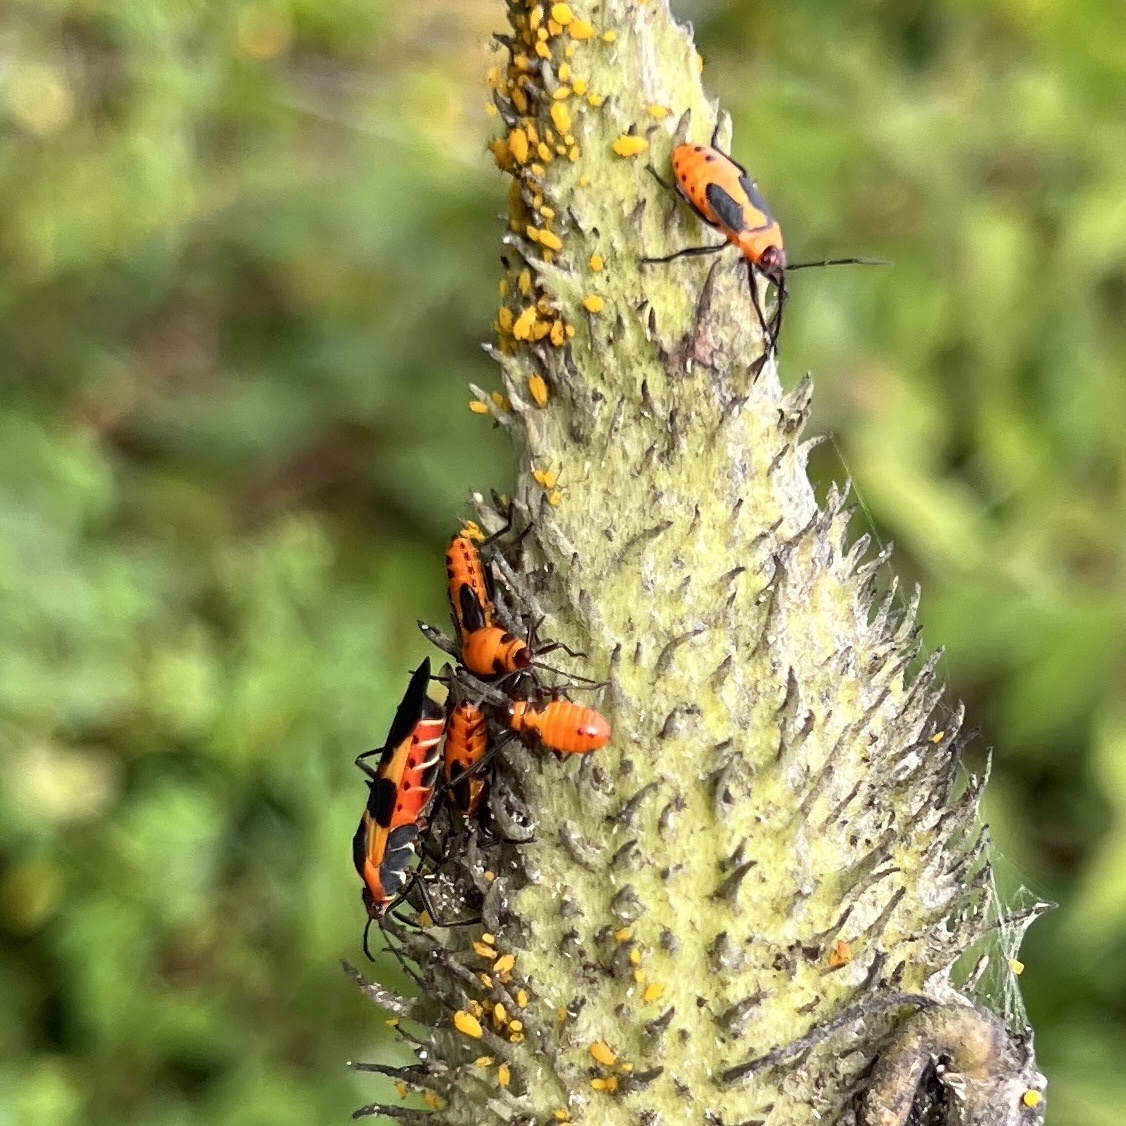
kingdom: Animalia
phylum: Arthropoda
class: Insecta
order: Hemiptera
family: Lygaeidae
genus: Oncopeltus
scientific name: Oncopeltus fasciatus
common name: Large milkweed bug
